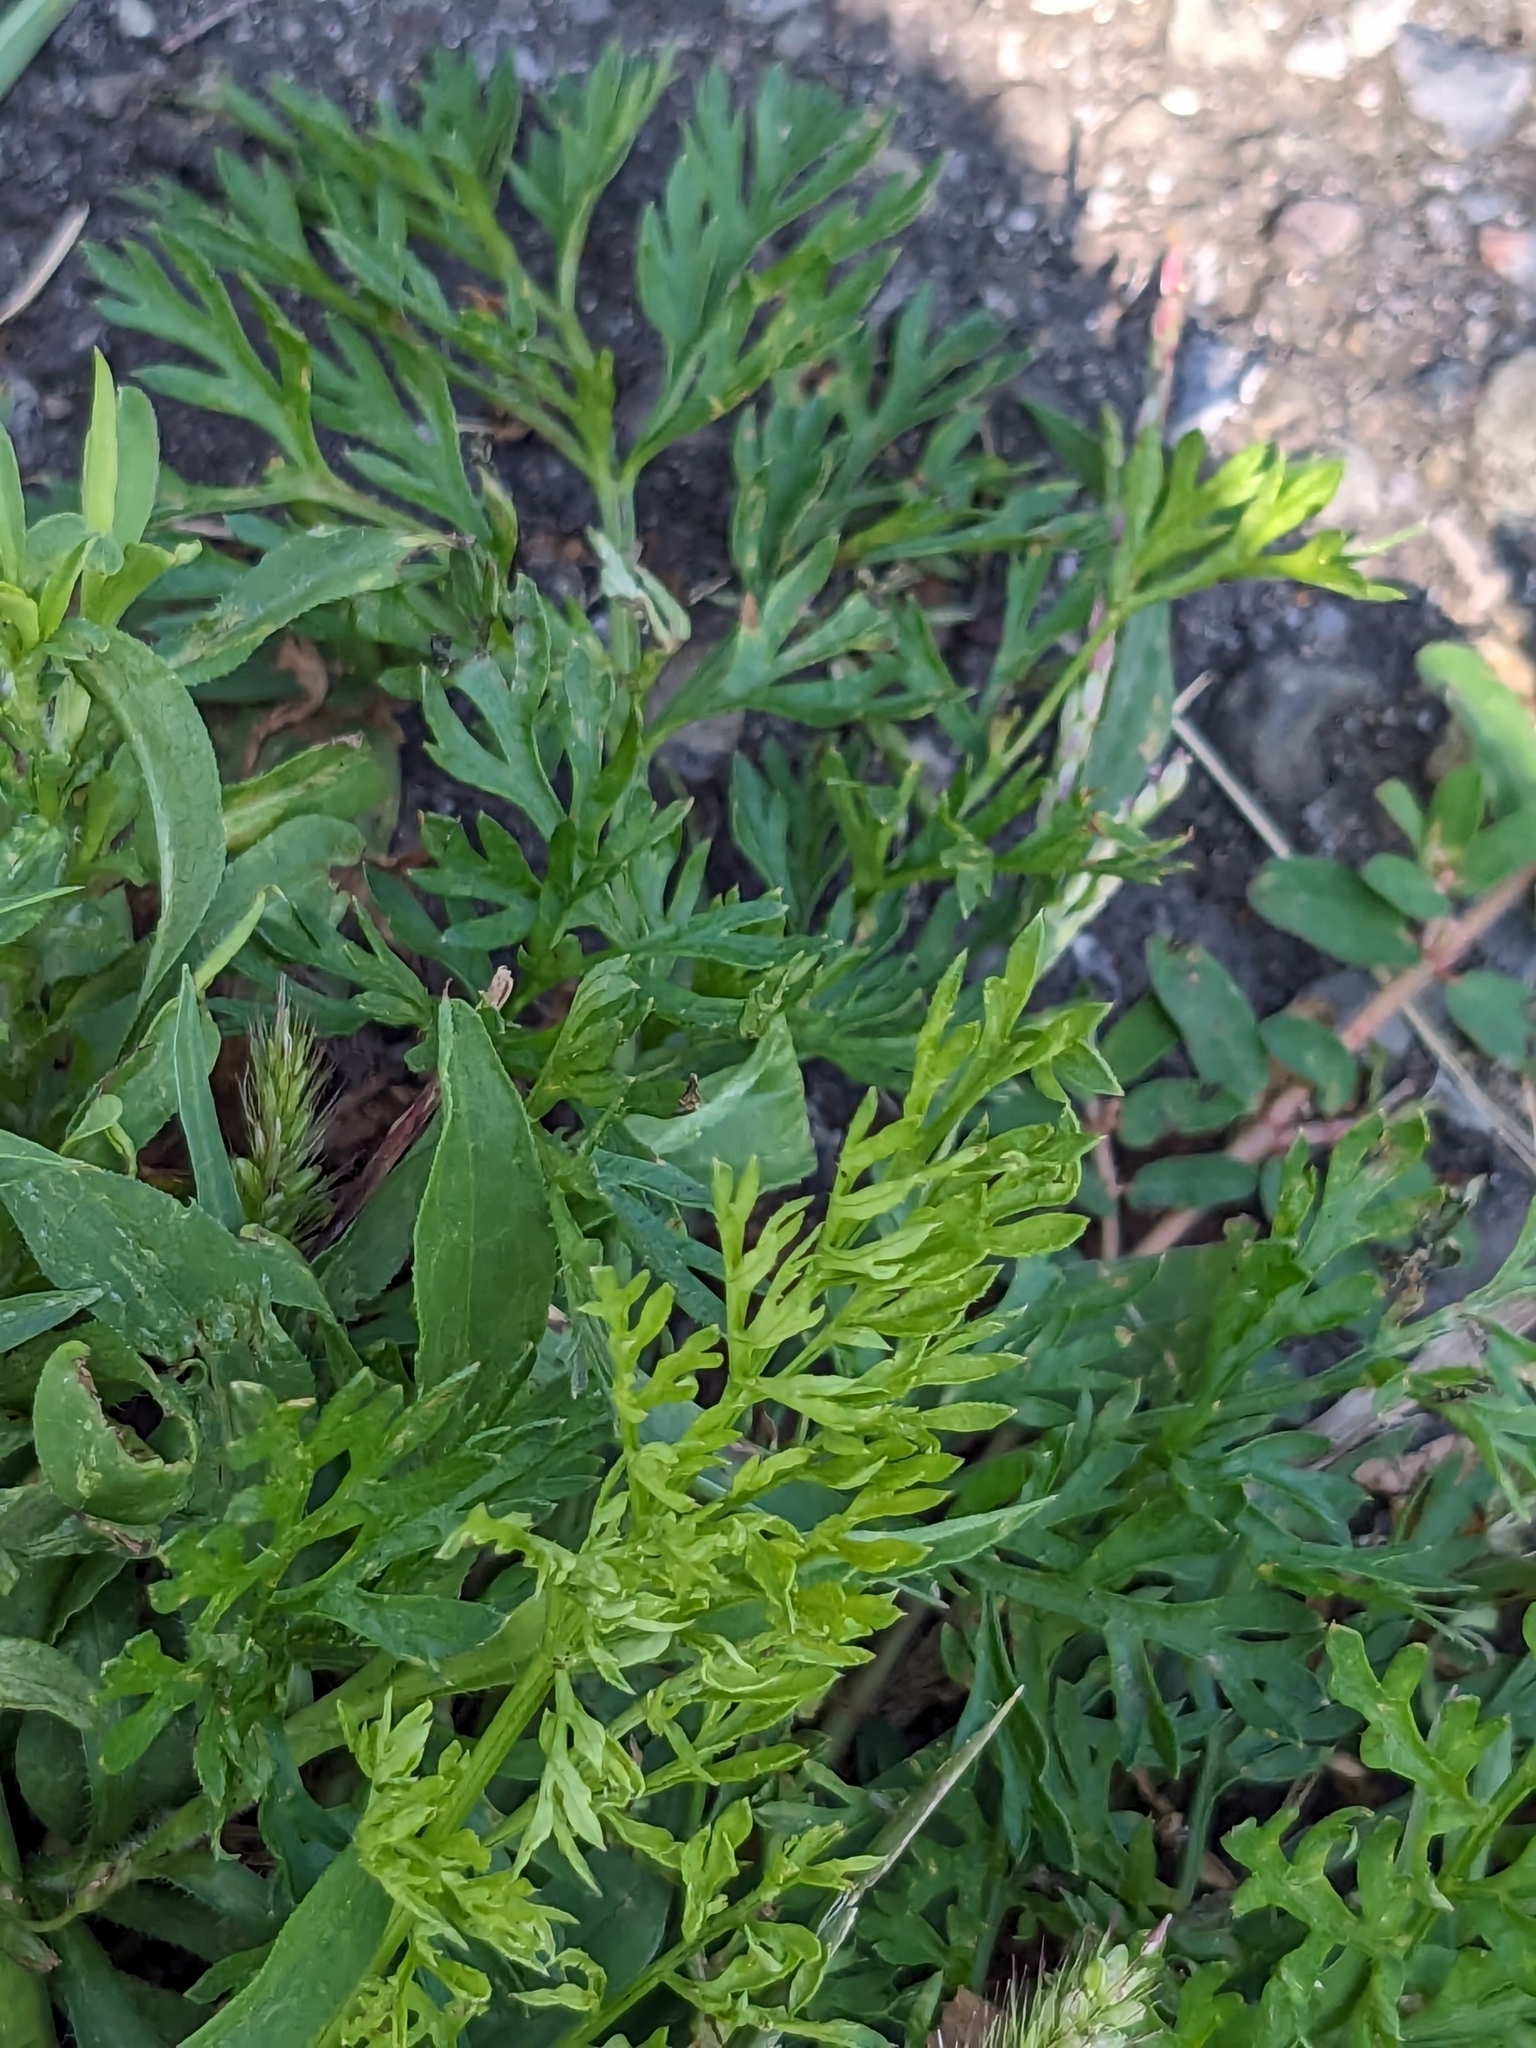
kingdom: Plantae
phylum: Tracheophyta
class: Magnoliopsida
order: Apiales
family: Apiaceae
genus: Daucus
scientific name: Daucus carota
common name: Wild carrot
